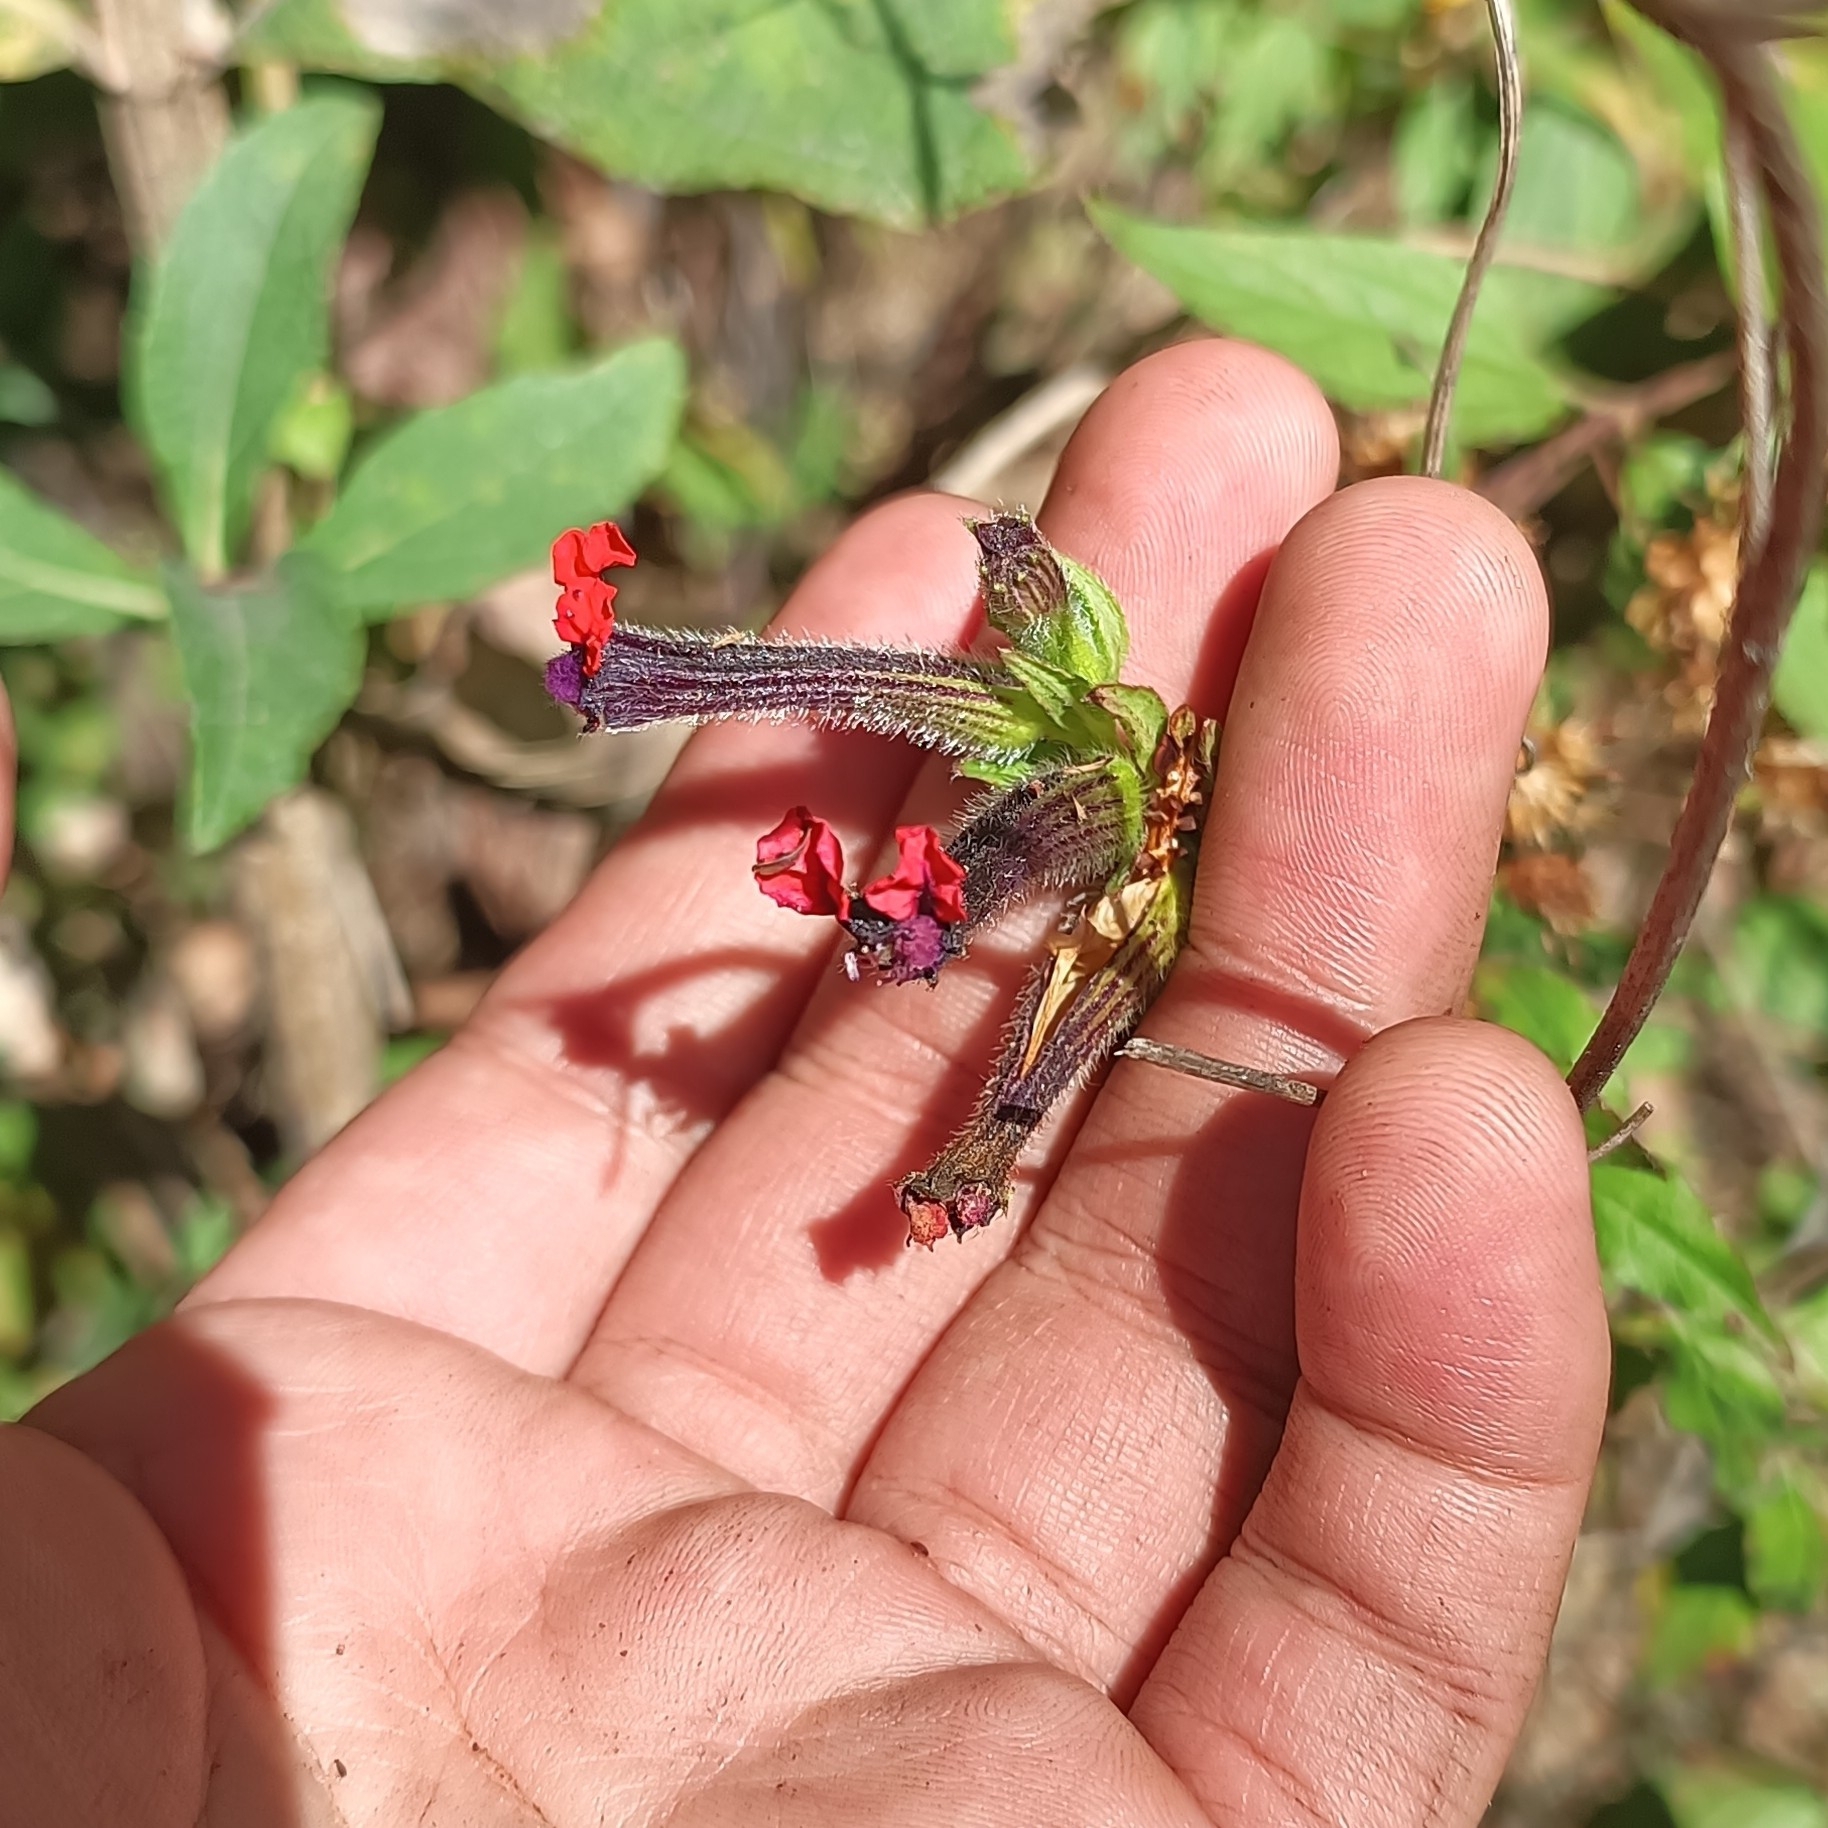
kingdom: Plantae
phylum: Tracheophyta
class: Magnoliopsida
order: Myrtales
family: Lythraceae
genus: Cuphea
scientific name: Cuphea llavea
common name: Tiny-mice
